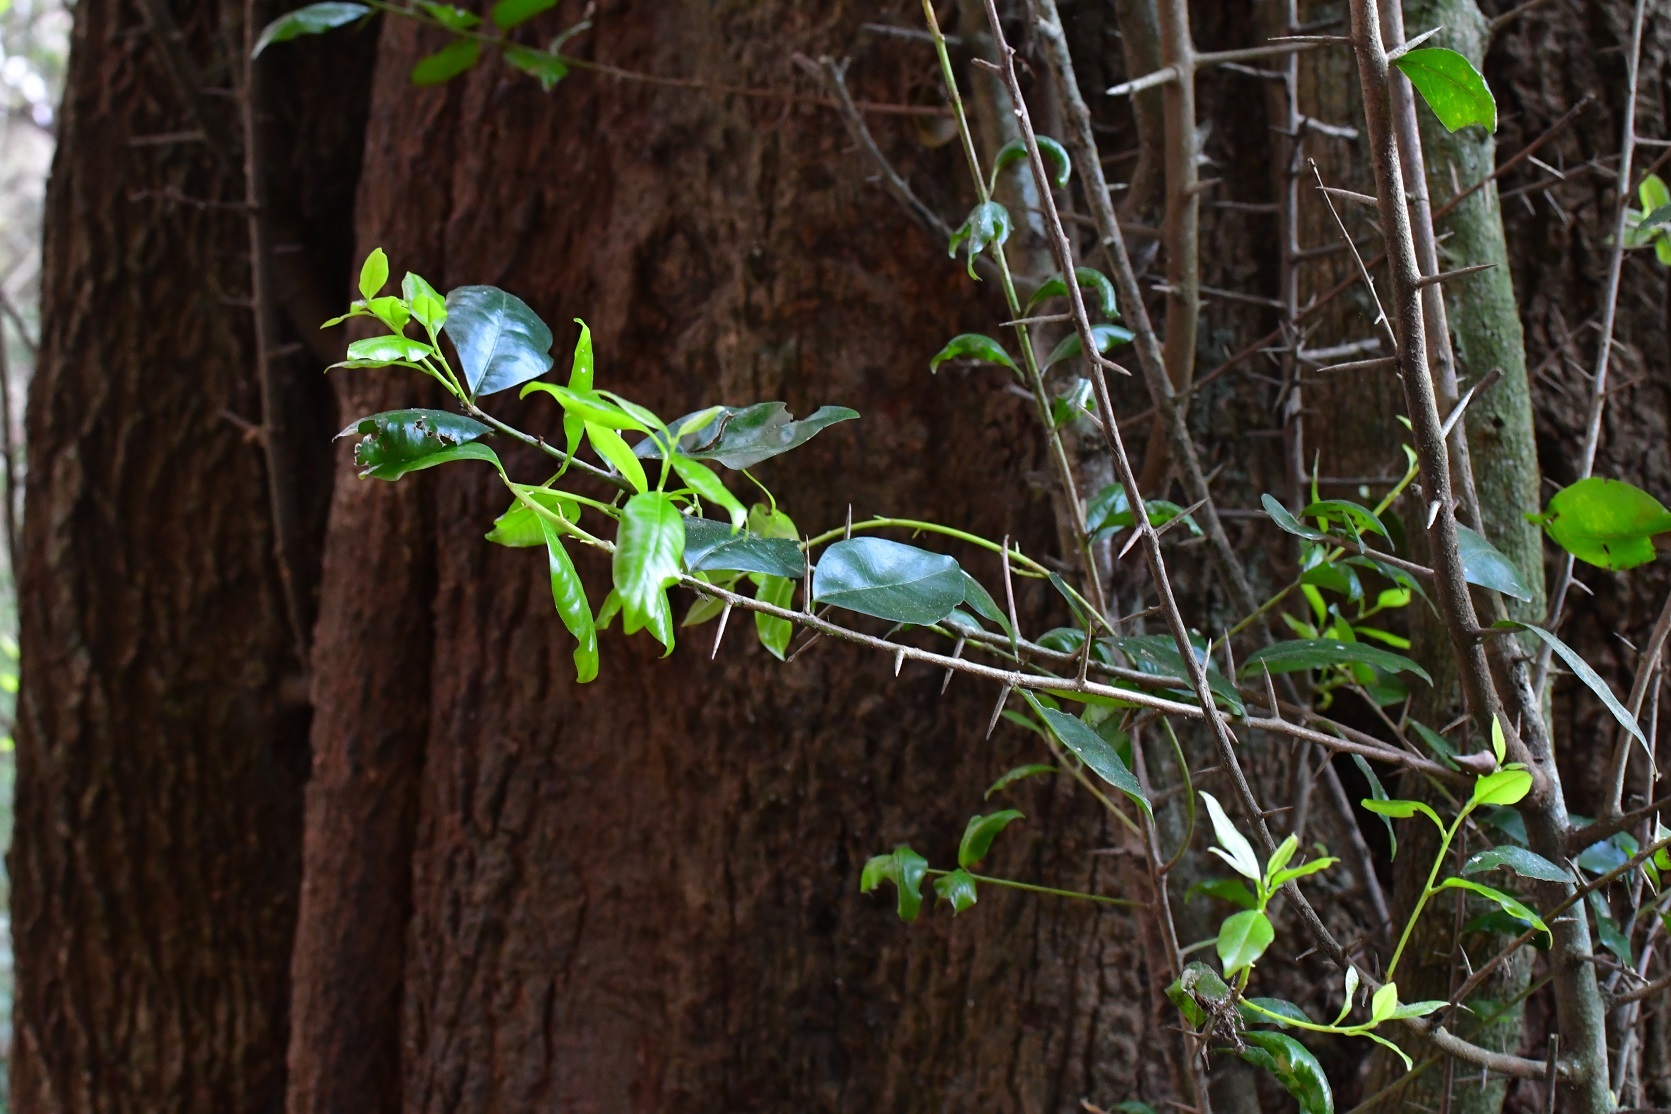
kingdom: Plantae
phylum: Tracheophyta
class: Magnoliopsida
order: Ericales
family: Sapotaceae
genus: Sideroxylon
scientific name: Sideroxylon persimile
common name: Bumelia
